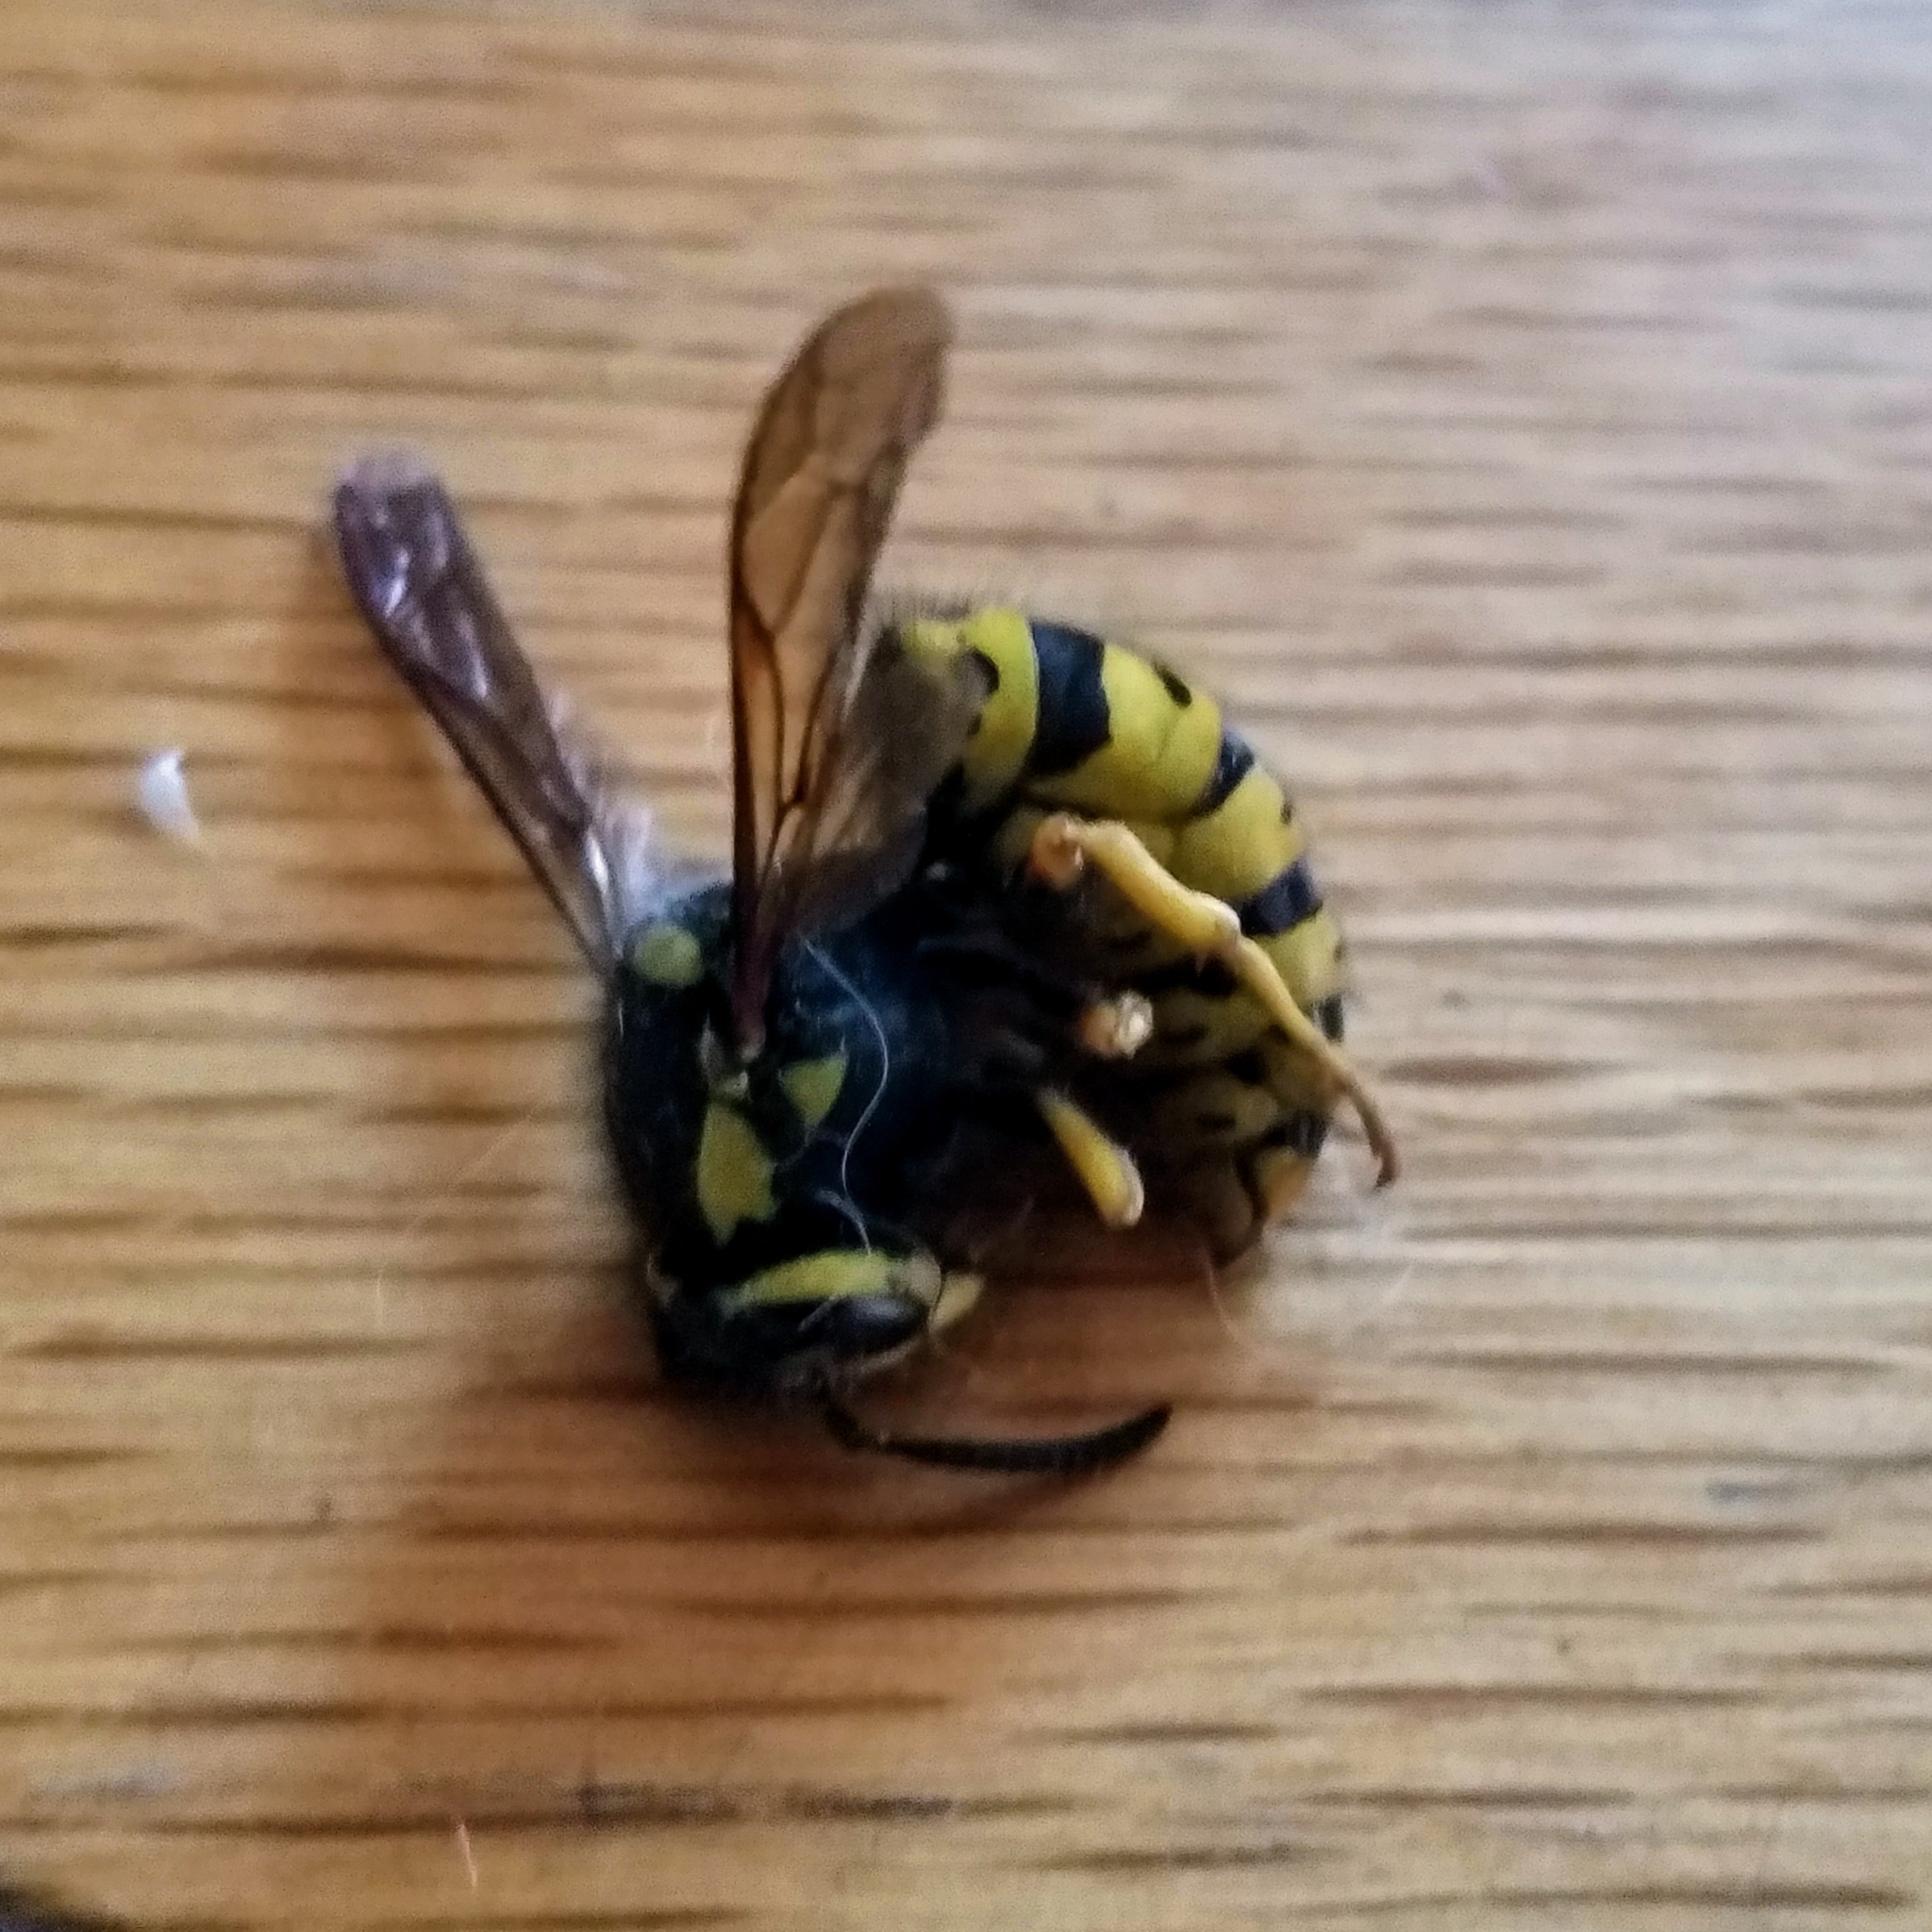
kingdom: Animalia
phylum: Arthropoda
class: Insecta
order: Hymenoptera
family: Vespidae
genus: Vespula
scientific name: Vespula atropilosa
